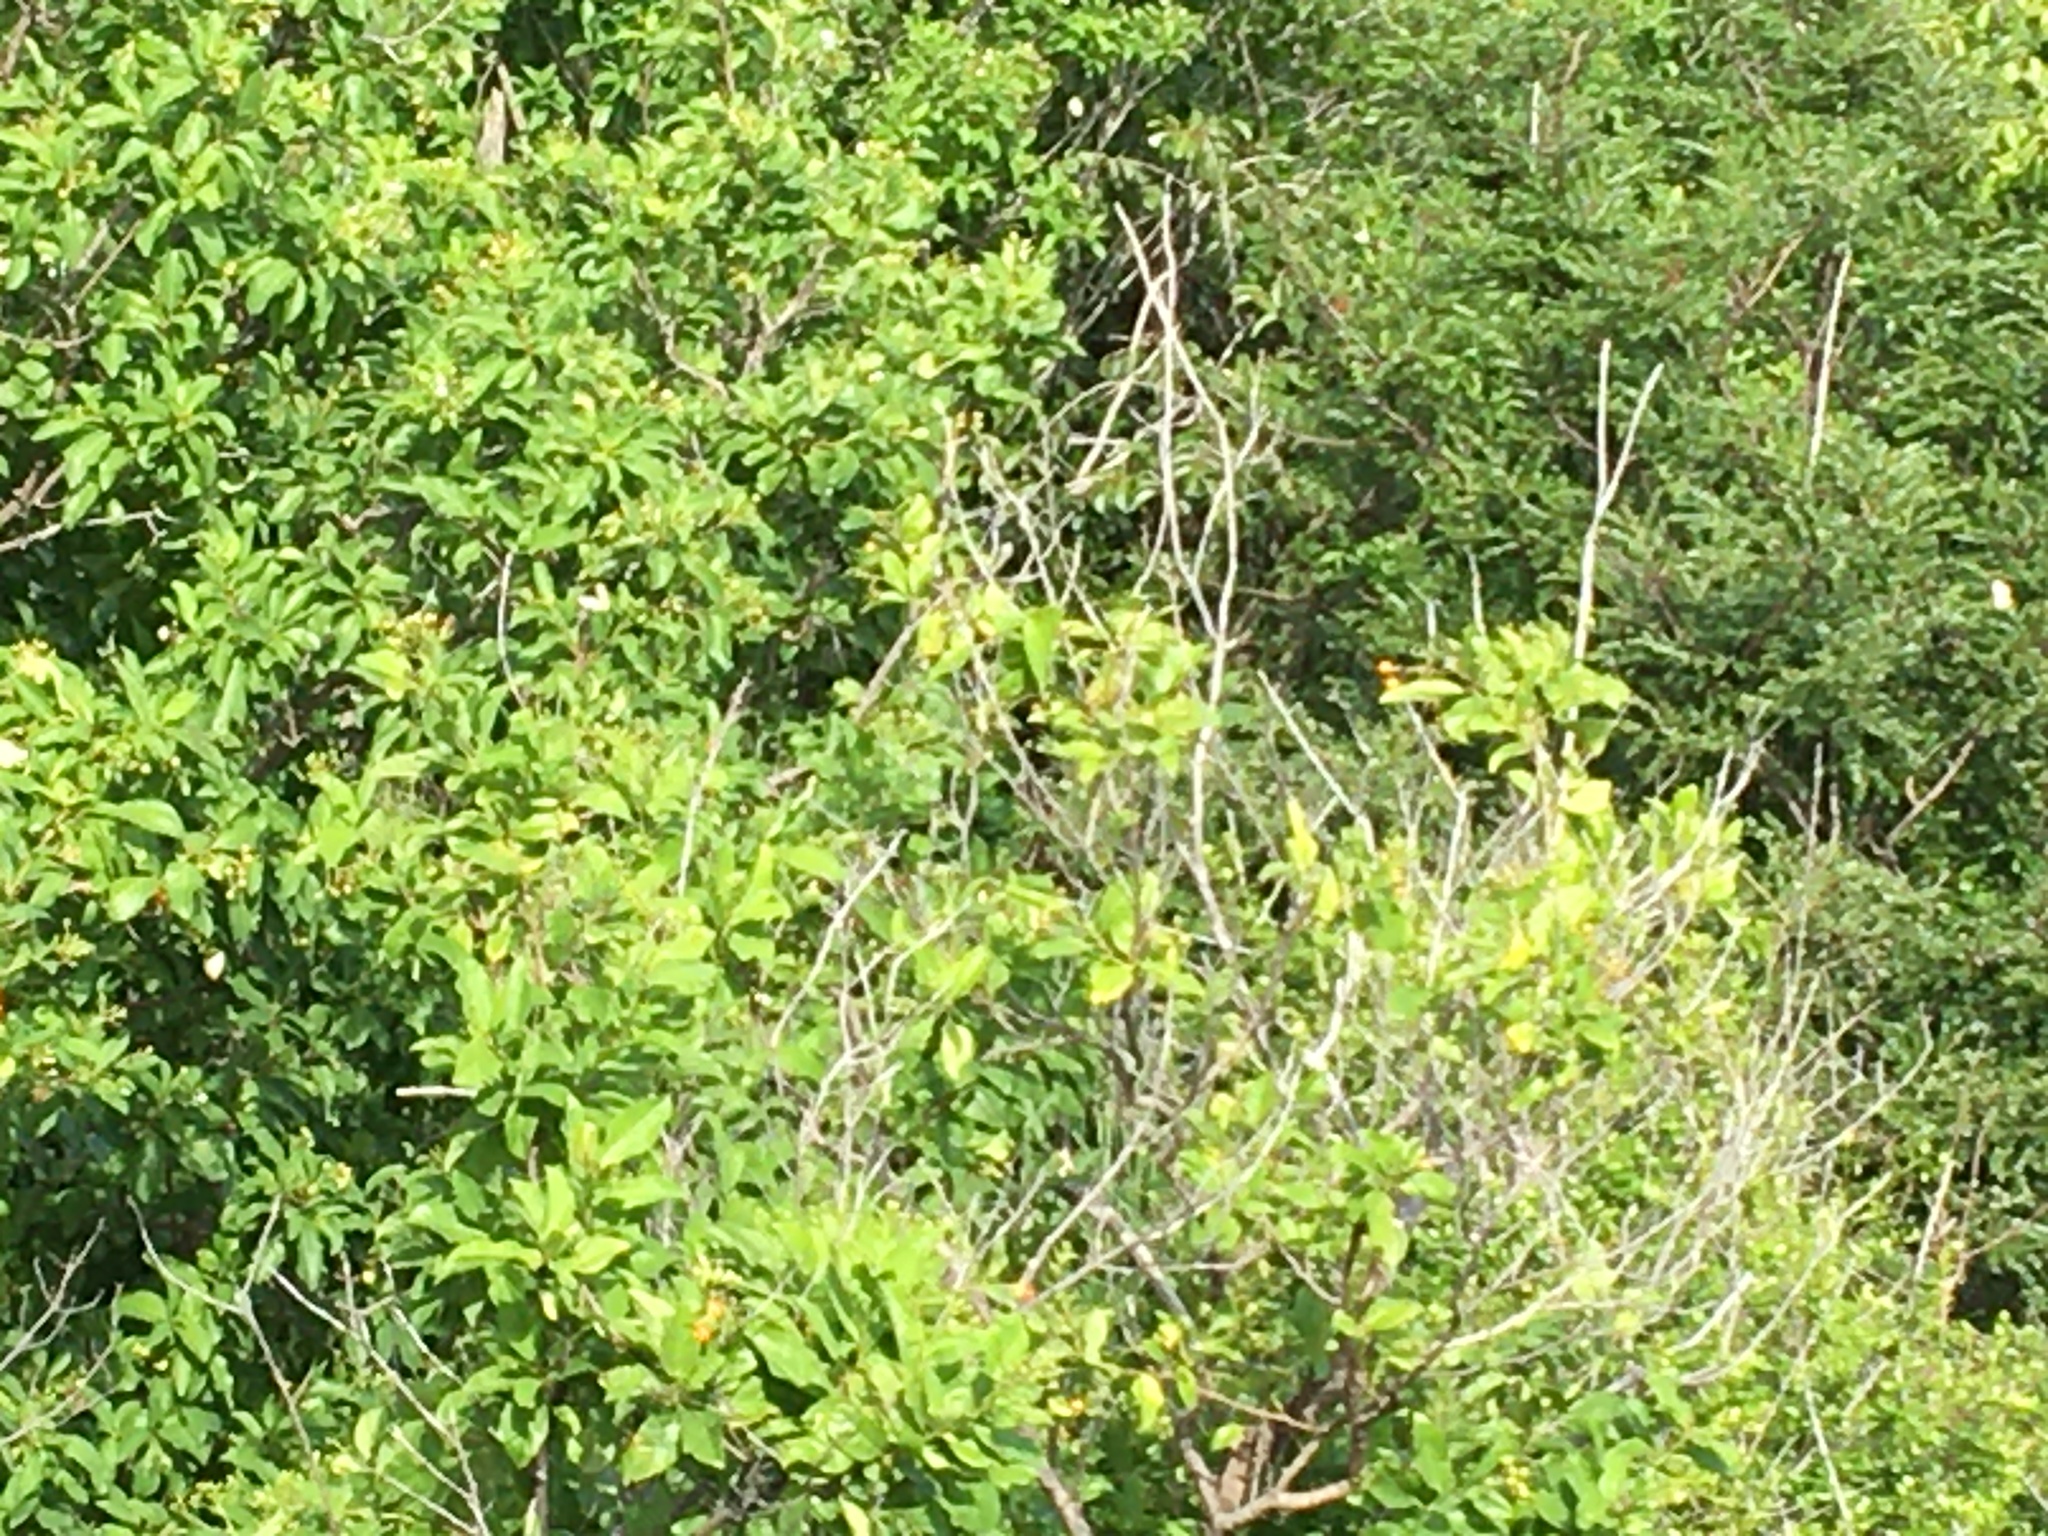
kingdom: Animalia
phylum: Arthropoda
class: Insecta
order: Lepidoptera
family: Pieridae
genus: Ascia
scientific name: Ascia monuste
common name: Great southern white
